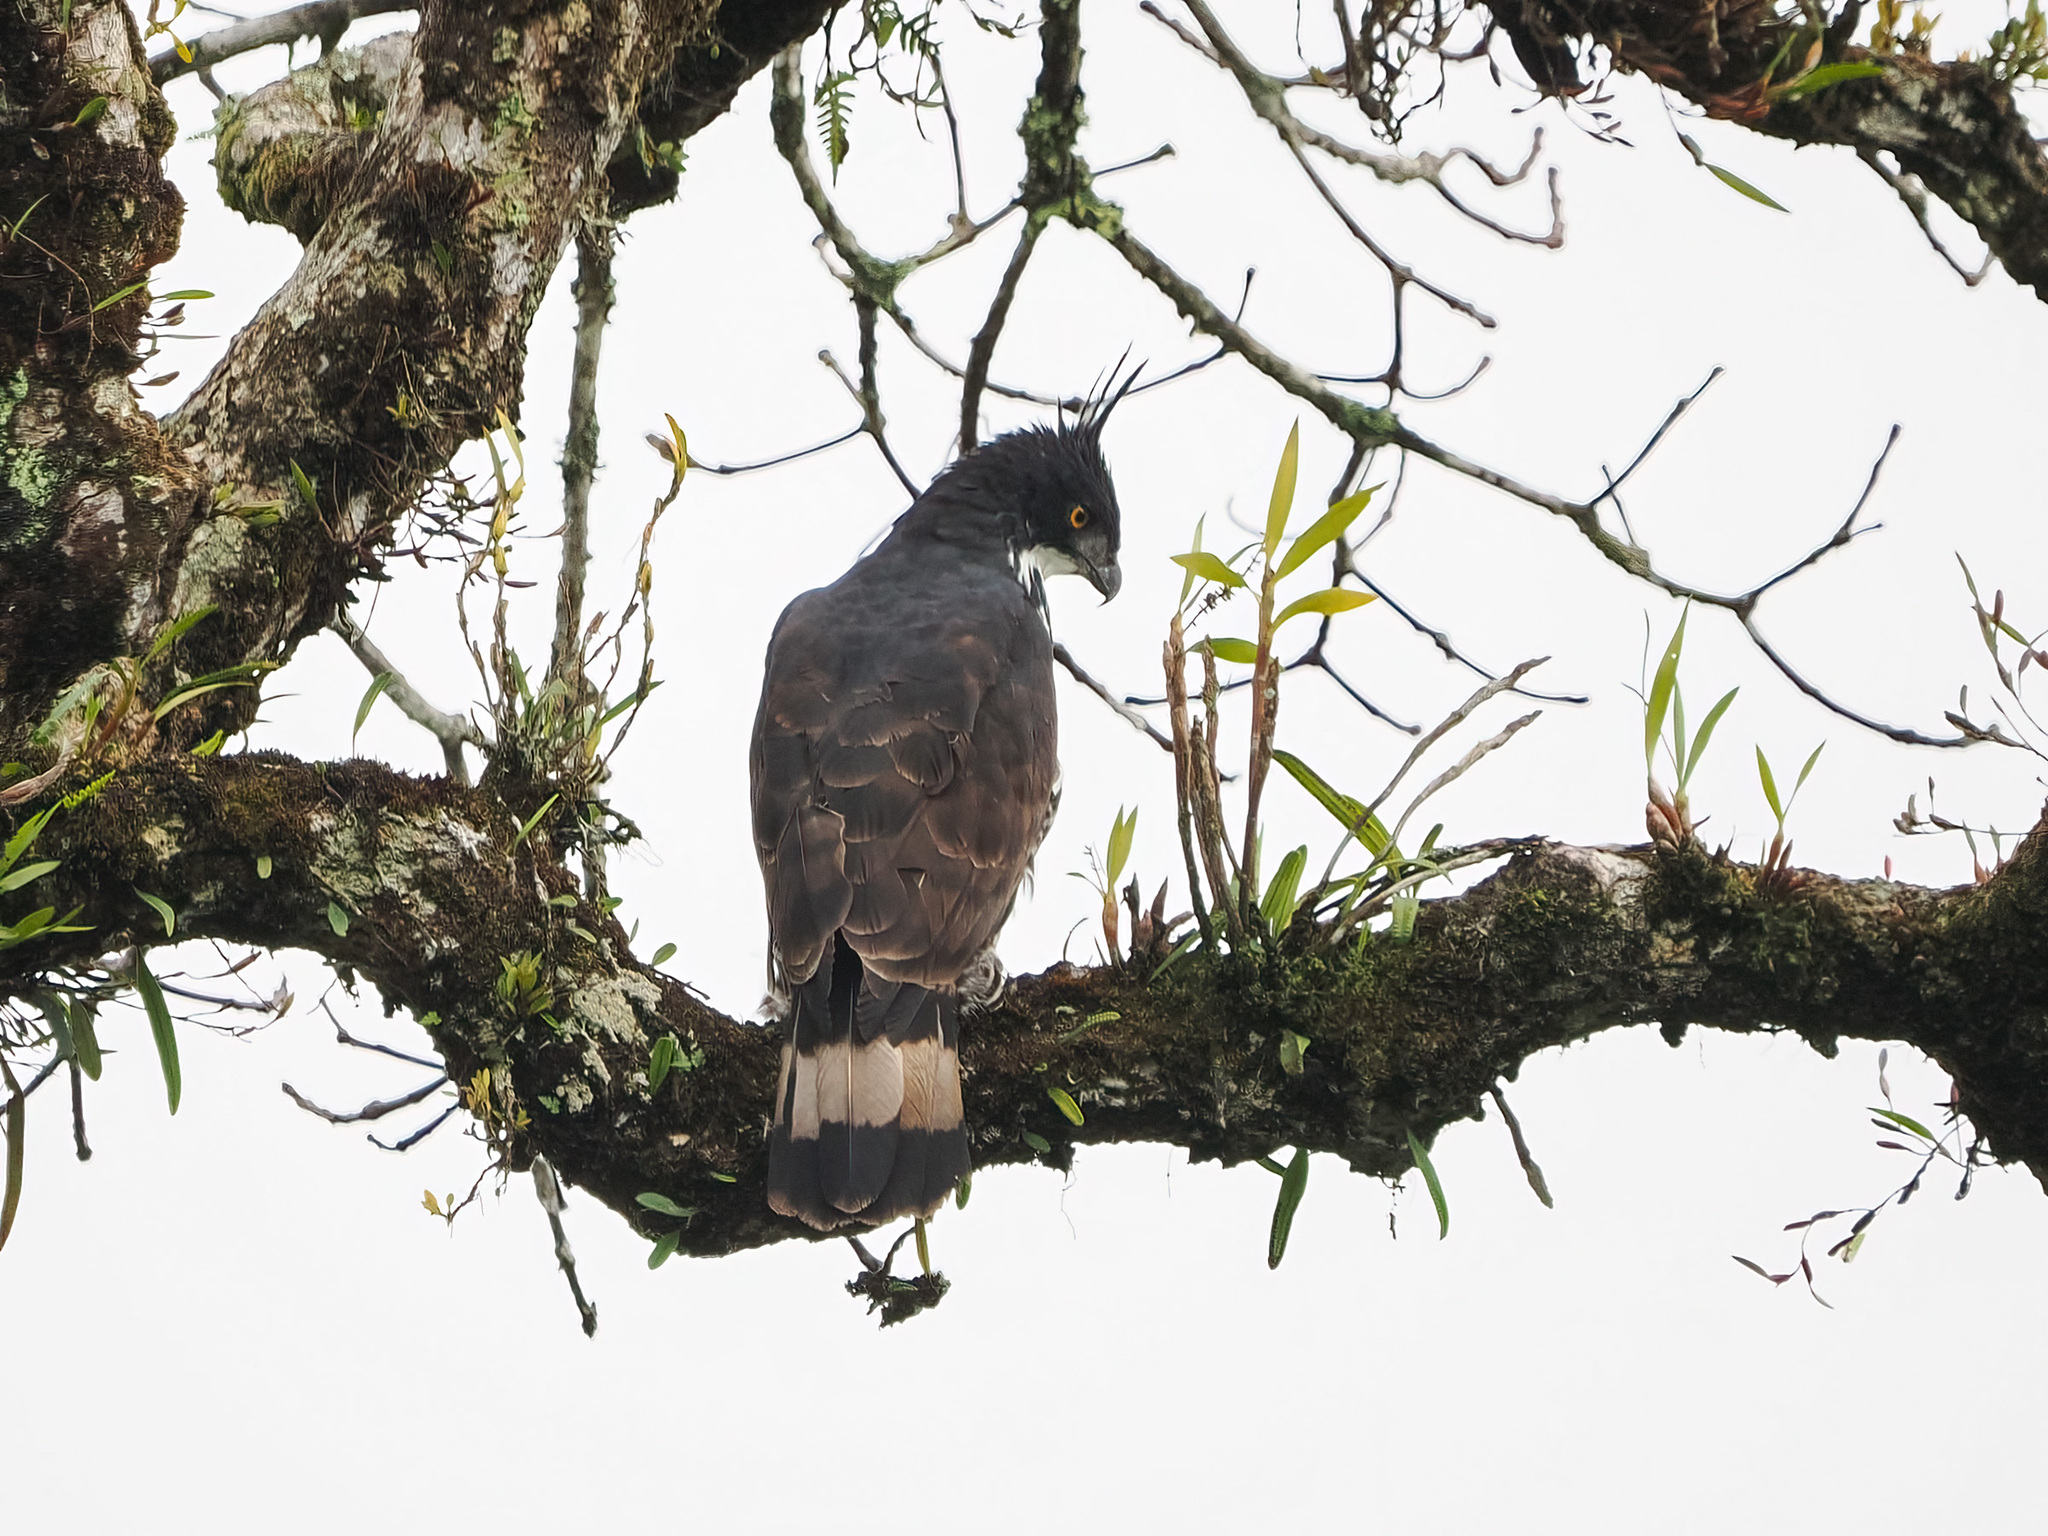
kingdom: Animalia
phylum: Chordata
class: Aves
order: Accipitriformes
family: Accipitridae
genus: Nisaetus
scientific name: Nisaetus alboniger
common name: Blyth's hawk-eagle
